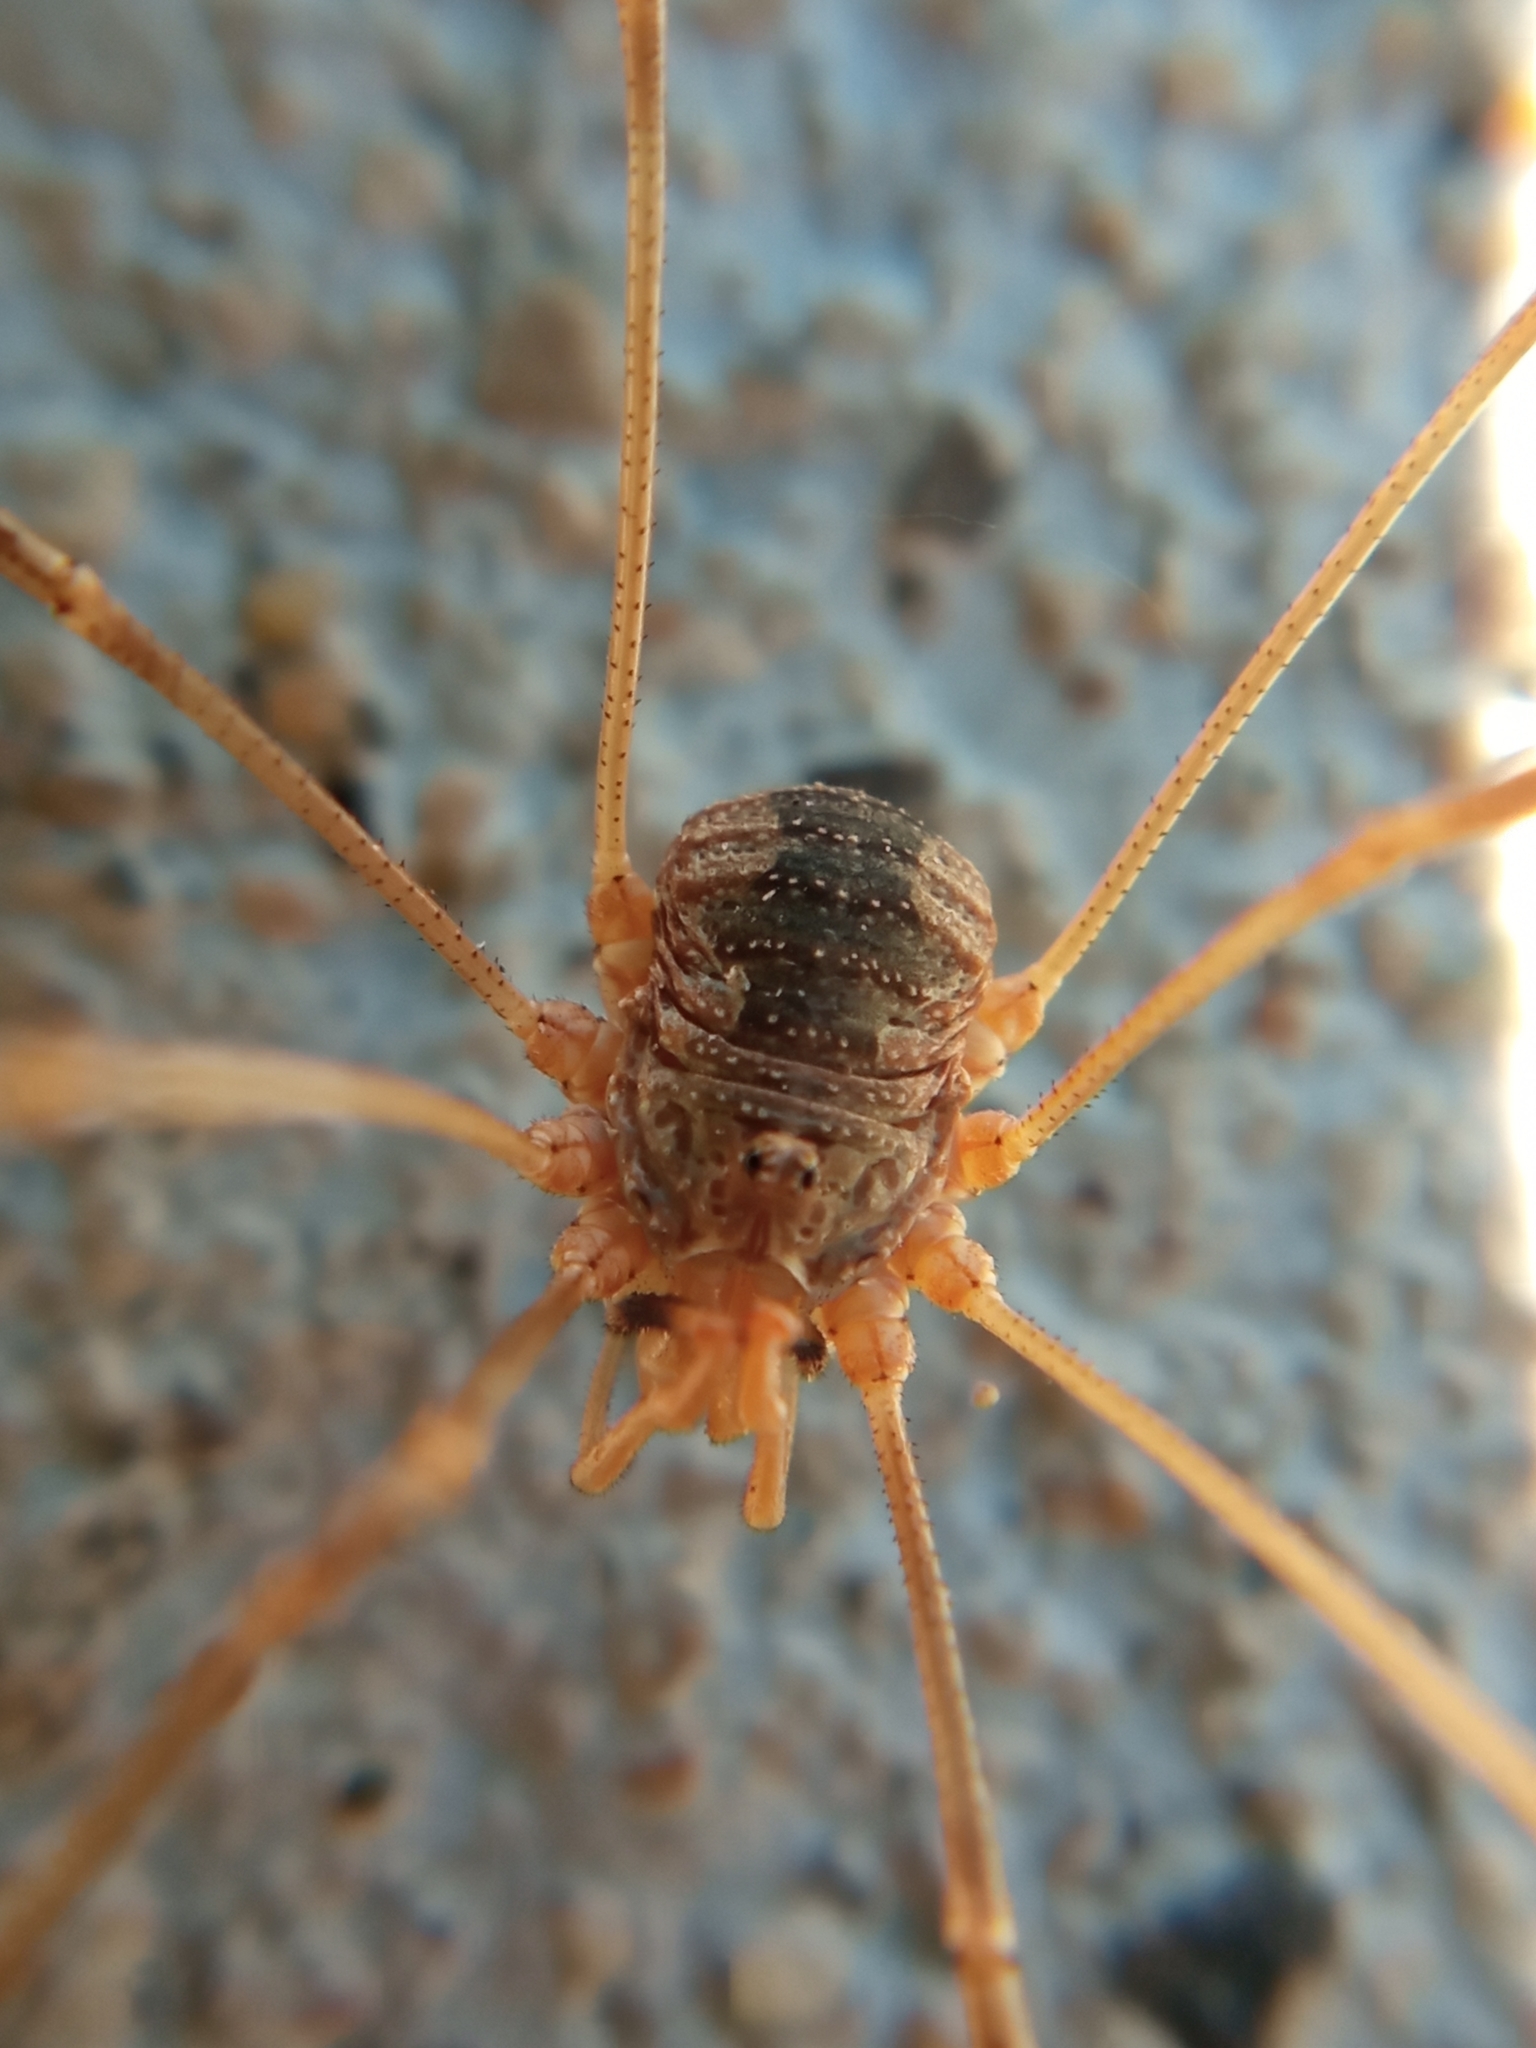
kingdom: Animalia
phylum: Arthropoda
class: Arachnida
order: Opiliones
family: Phalangiidae
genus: Phalangium
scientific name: Phalangium opilio
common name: Daddy longleg
